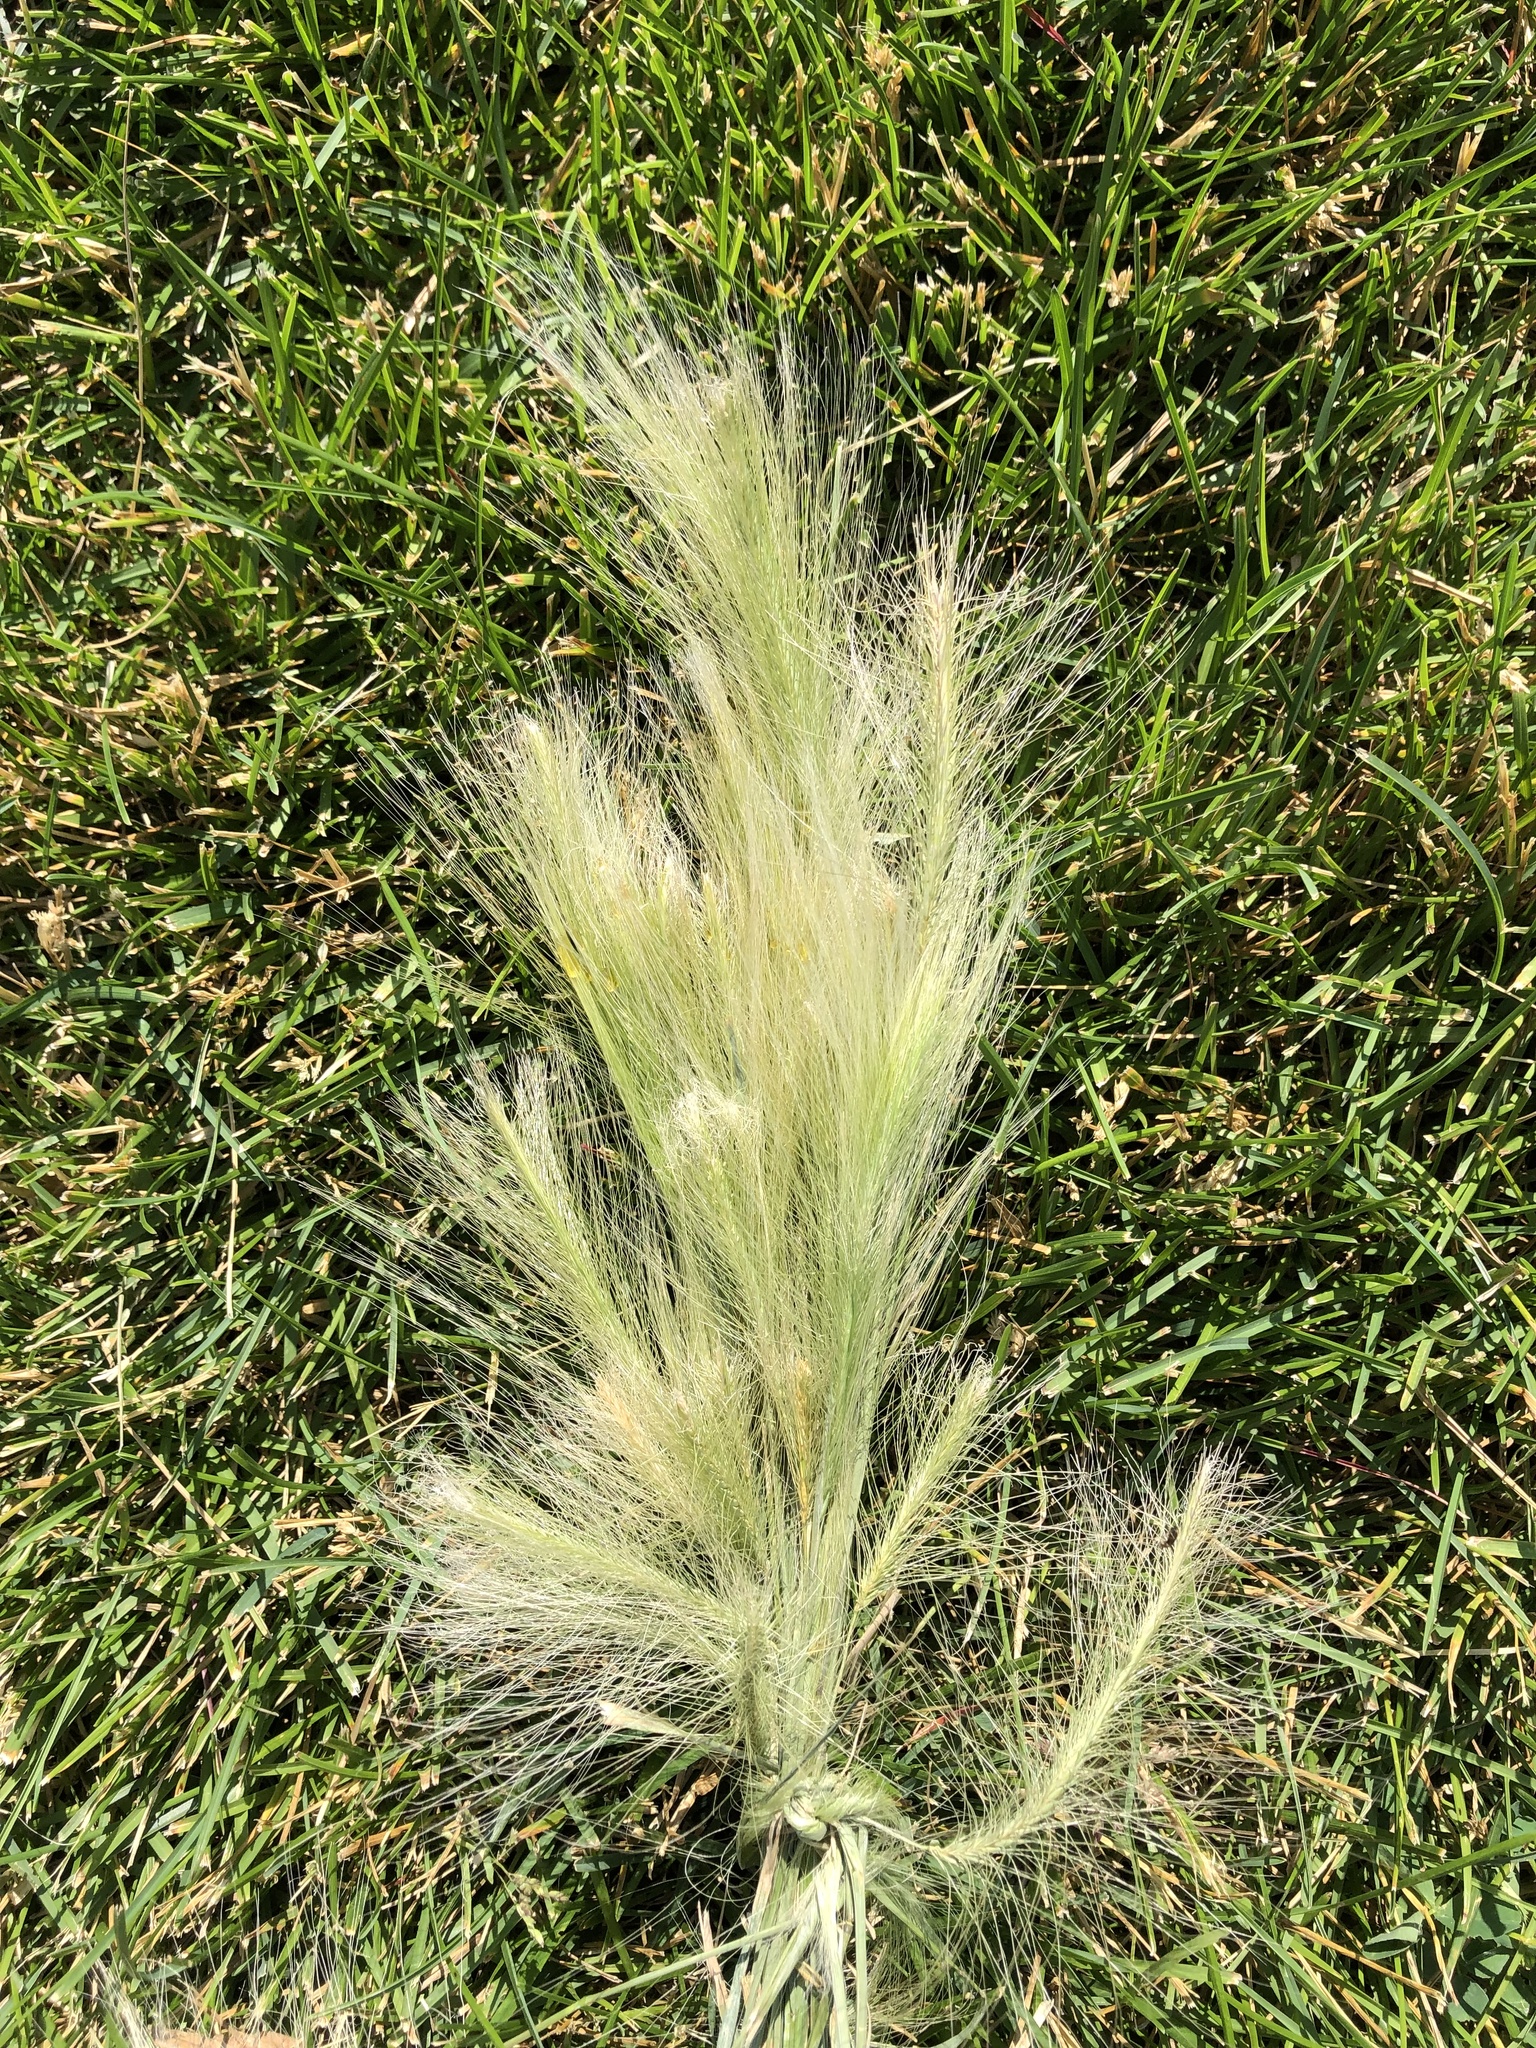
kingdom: Plantae
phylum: Tracheophyta
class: Liliopsida
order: Poales
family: Poaceae
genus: Hordeum
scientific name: Hordeum jubatum
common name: Foxtail barley
